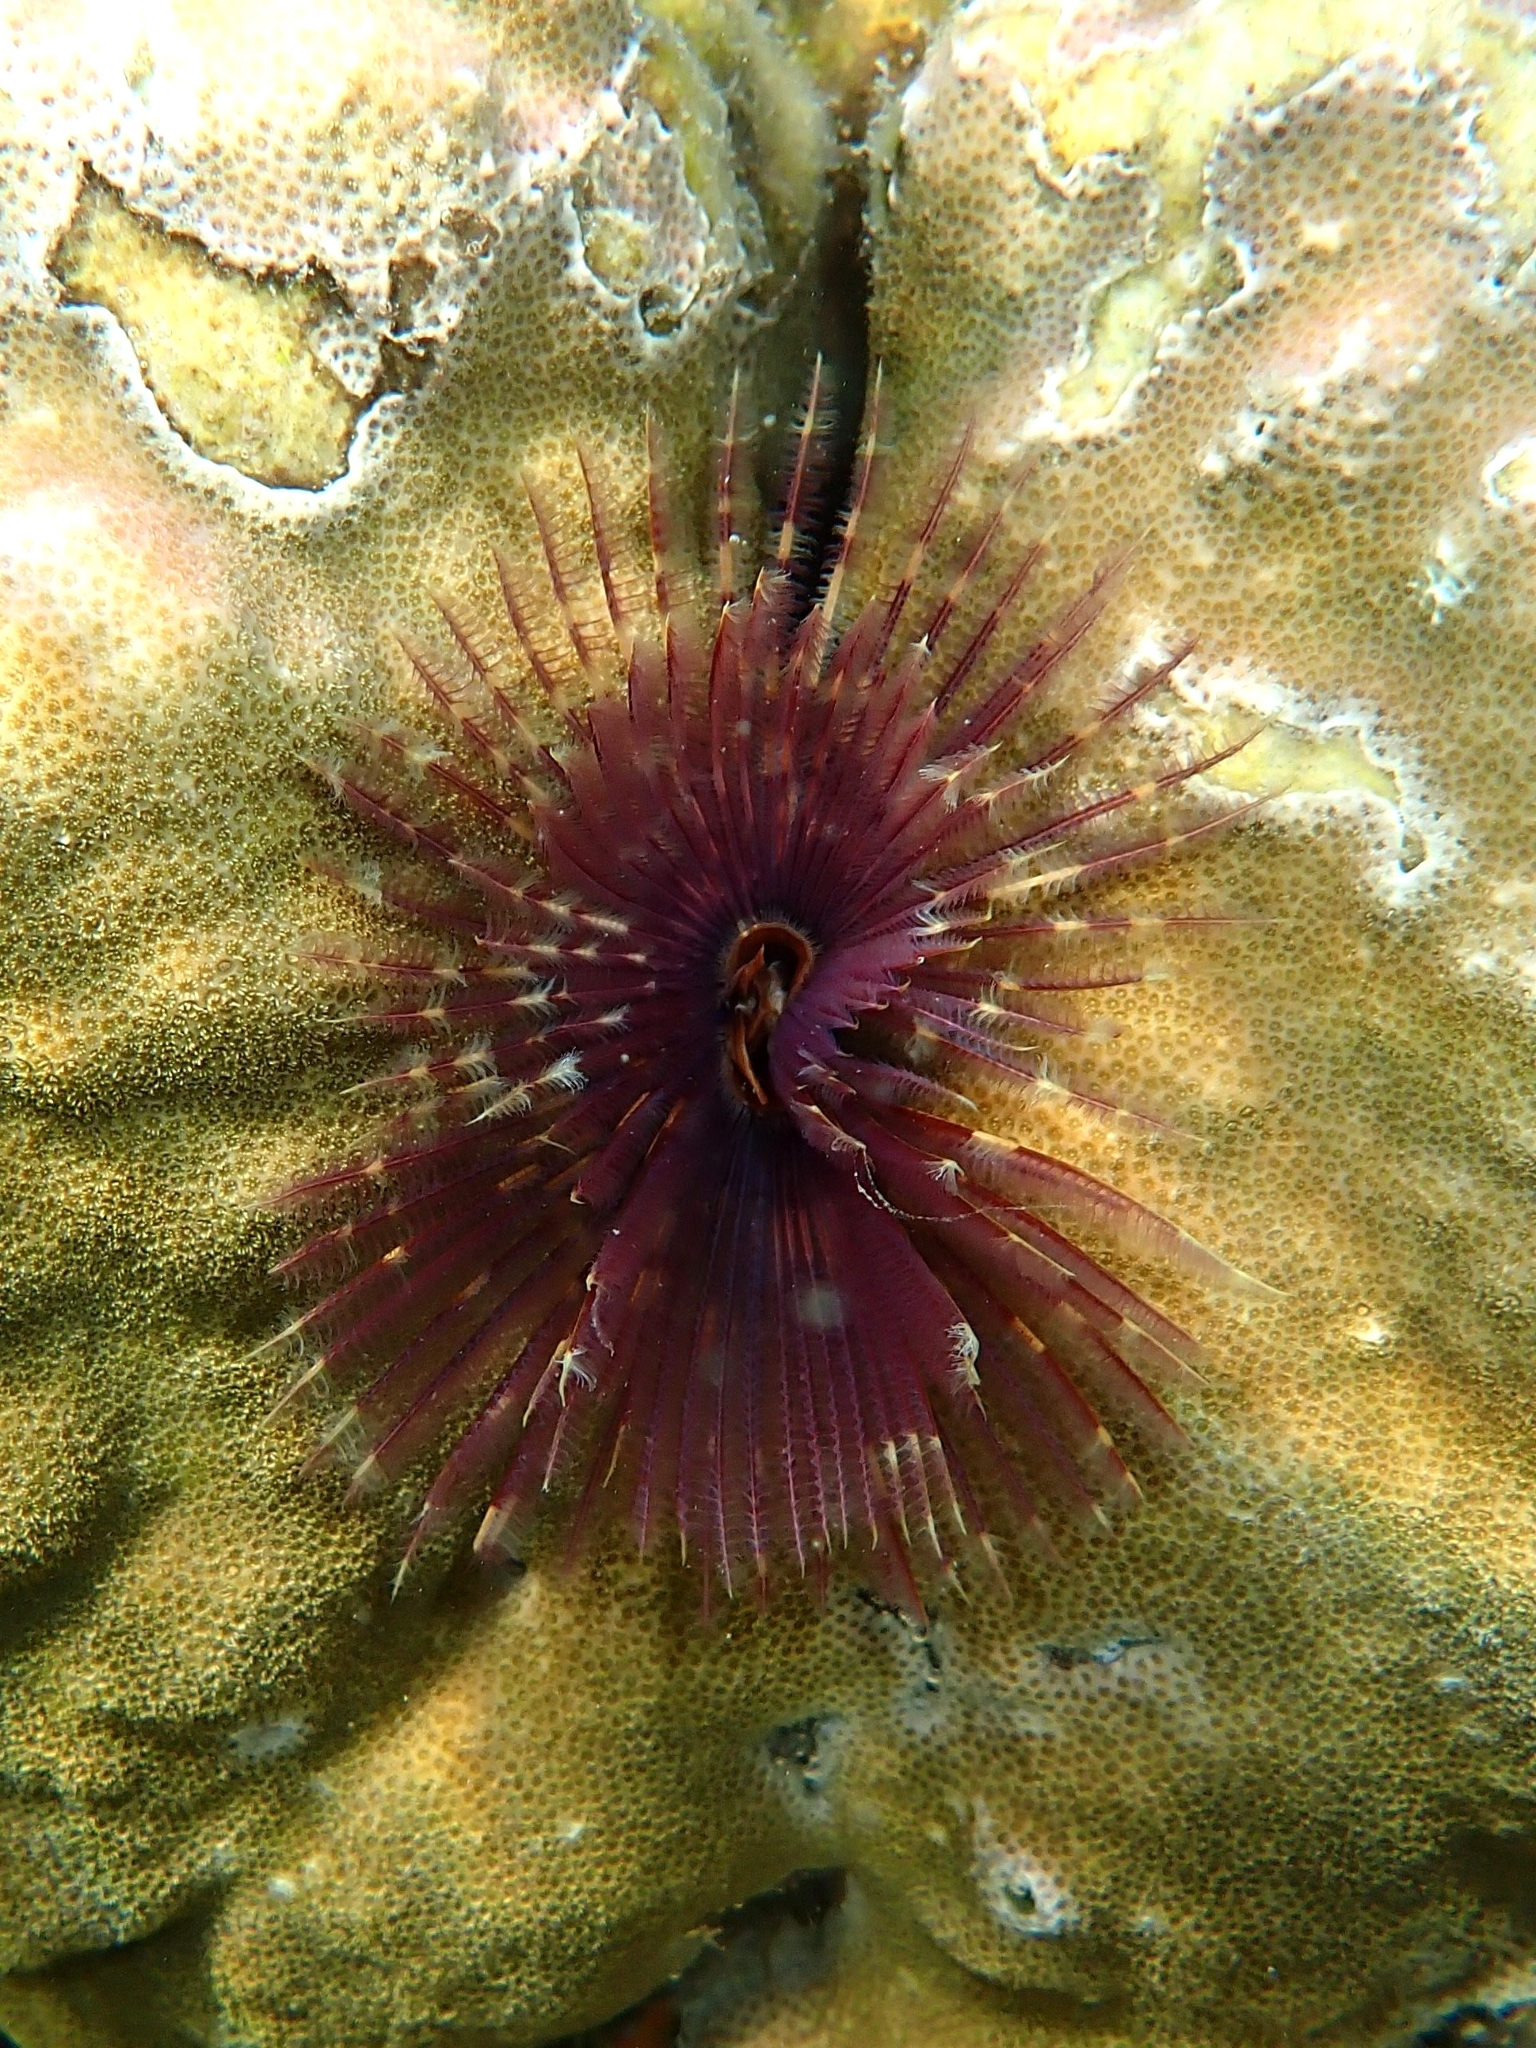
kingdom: Animalia
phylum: Annelida
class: Polychaeta
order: Sabellida
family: Sabellidae
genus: Sabellastarte
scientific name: Sabellastarte spectabilis
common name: Feather duster worm
